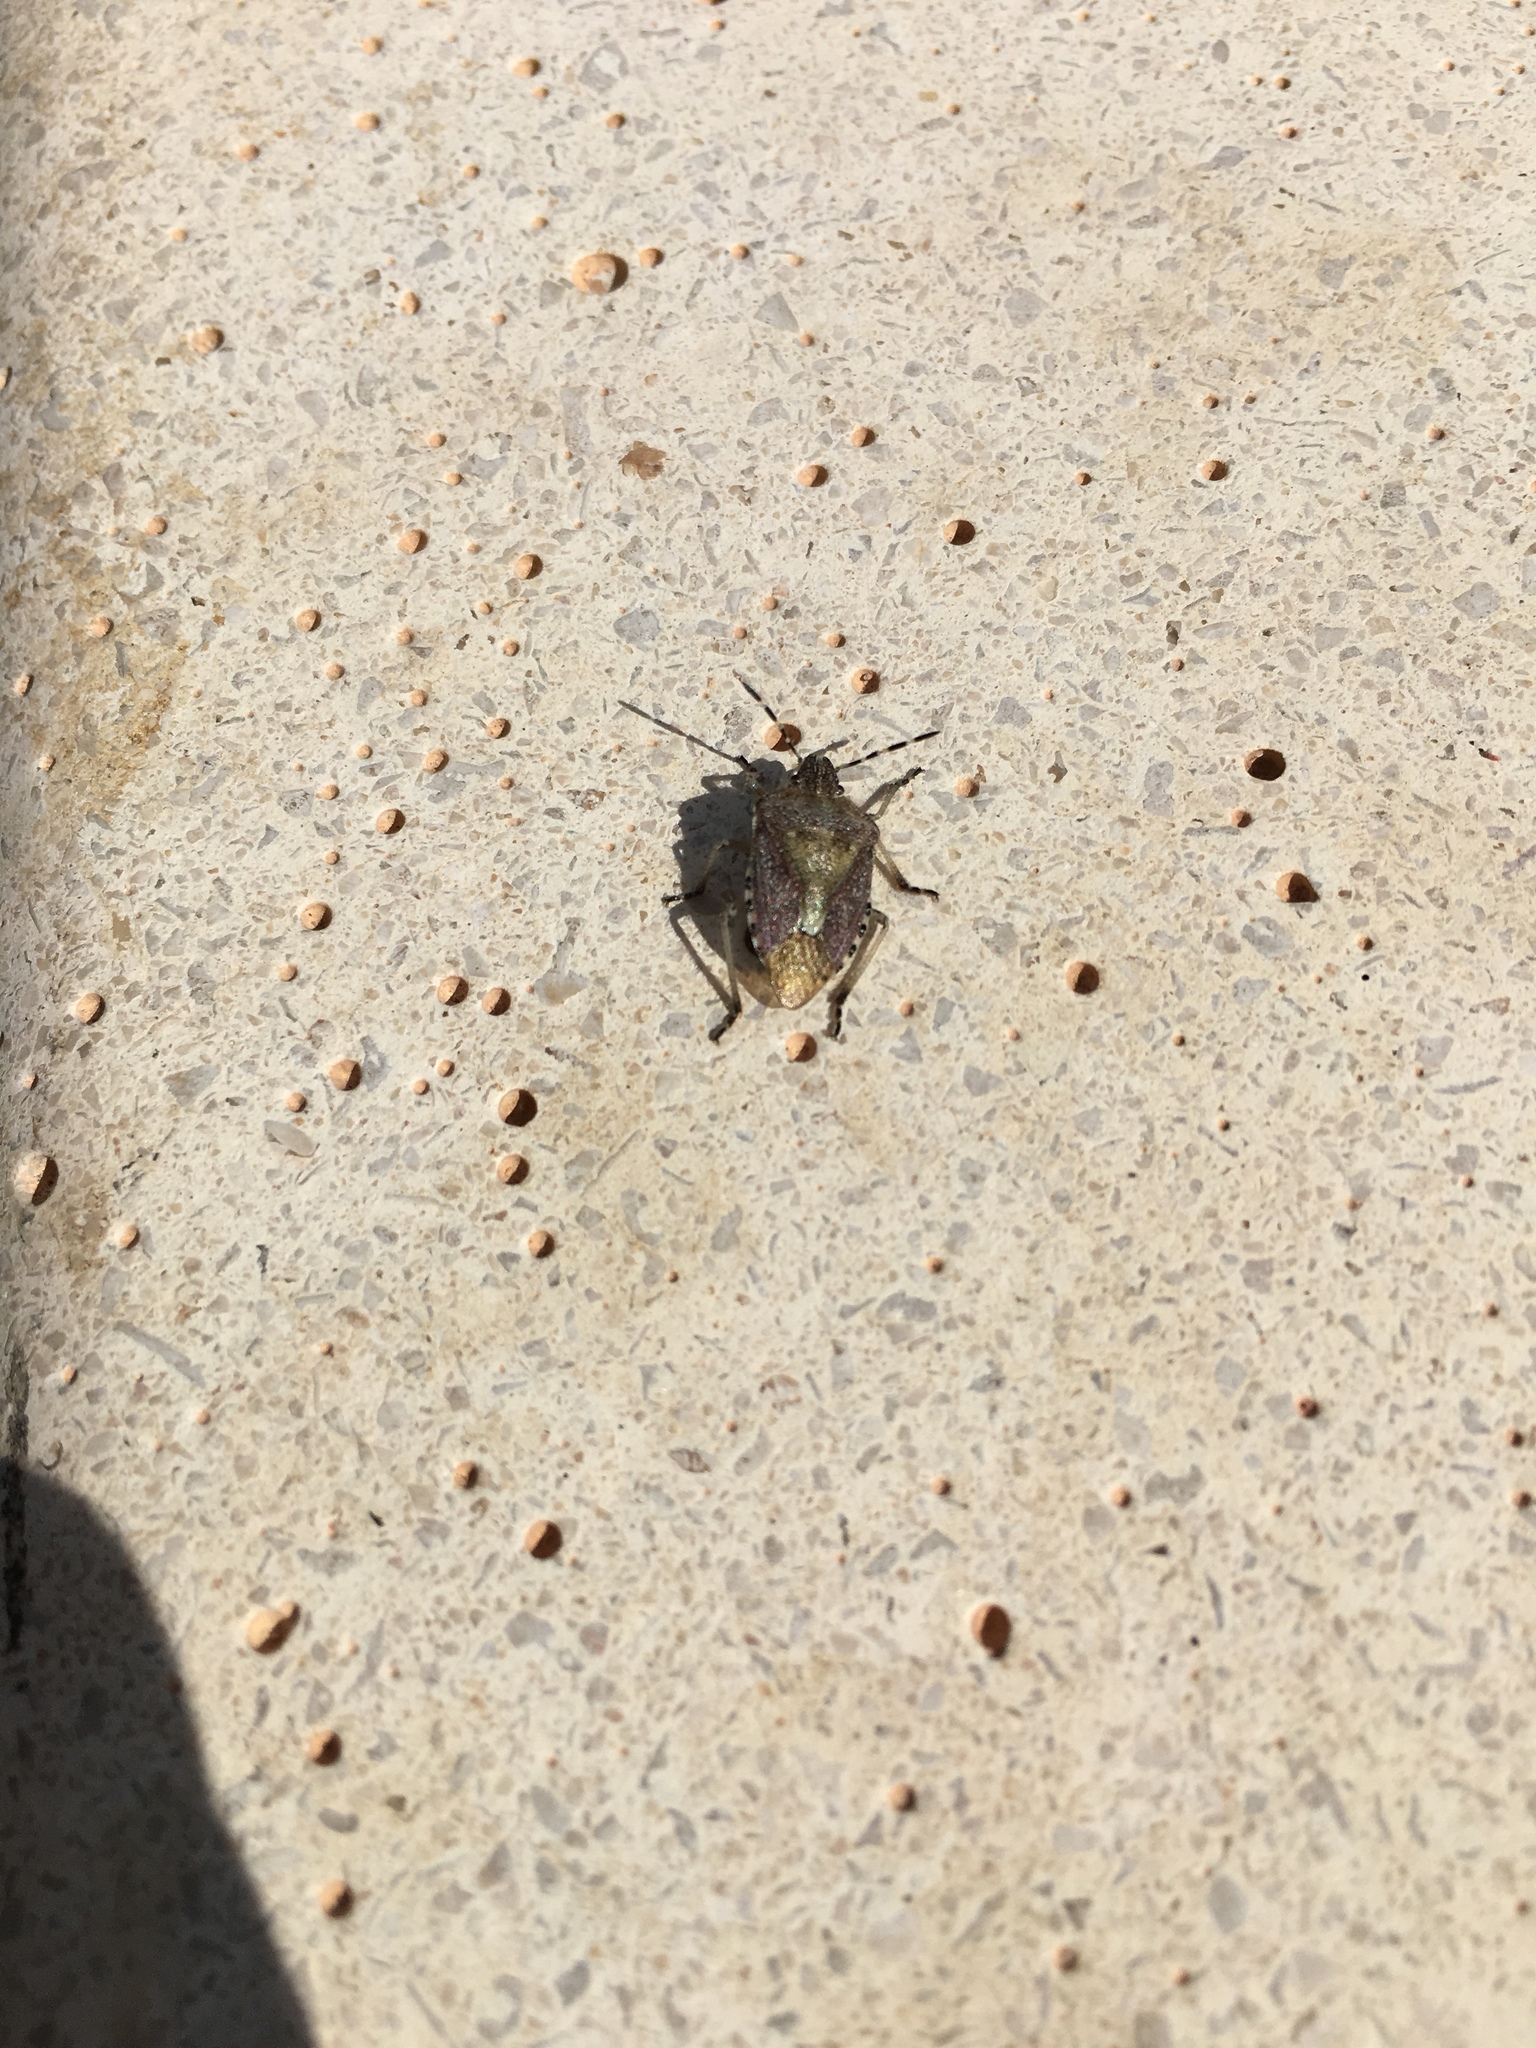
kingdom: Animalia
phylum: Arthropoda
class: Insecta
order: Hemiptera
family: Pentatomidae
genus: Dolycoris
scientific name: Dolycoris baccarum
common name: Sloe bug
